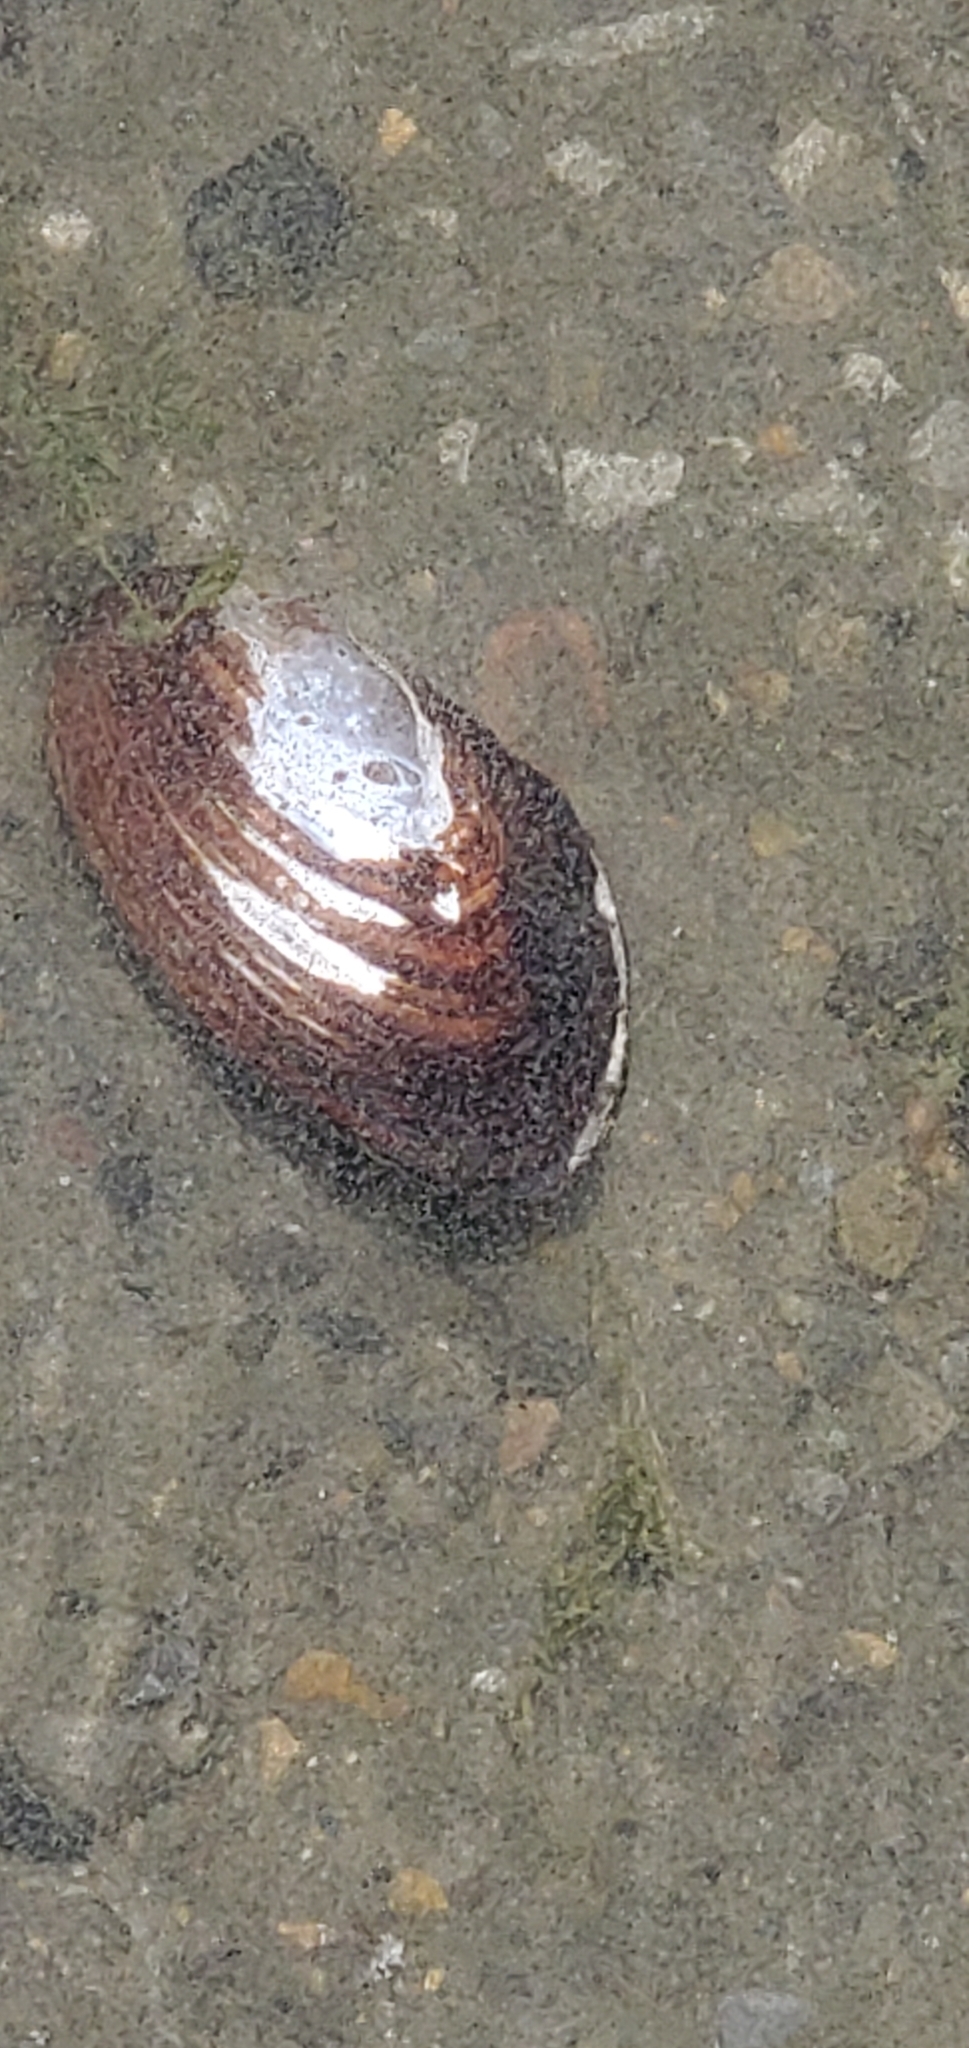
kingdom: Animalia
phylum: Mollusca
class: Bivalvia
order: Unionida
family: Unionidae
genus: Elliptio
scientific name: Elliptio complanata
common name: Eastern elliptio
